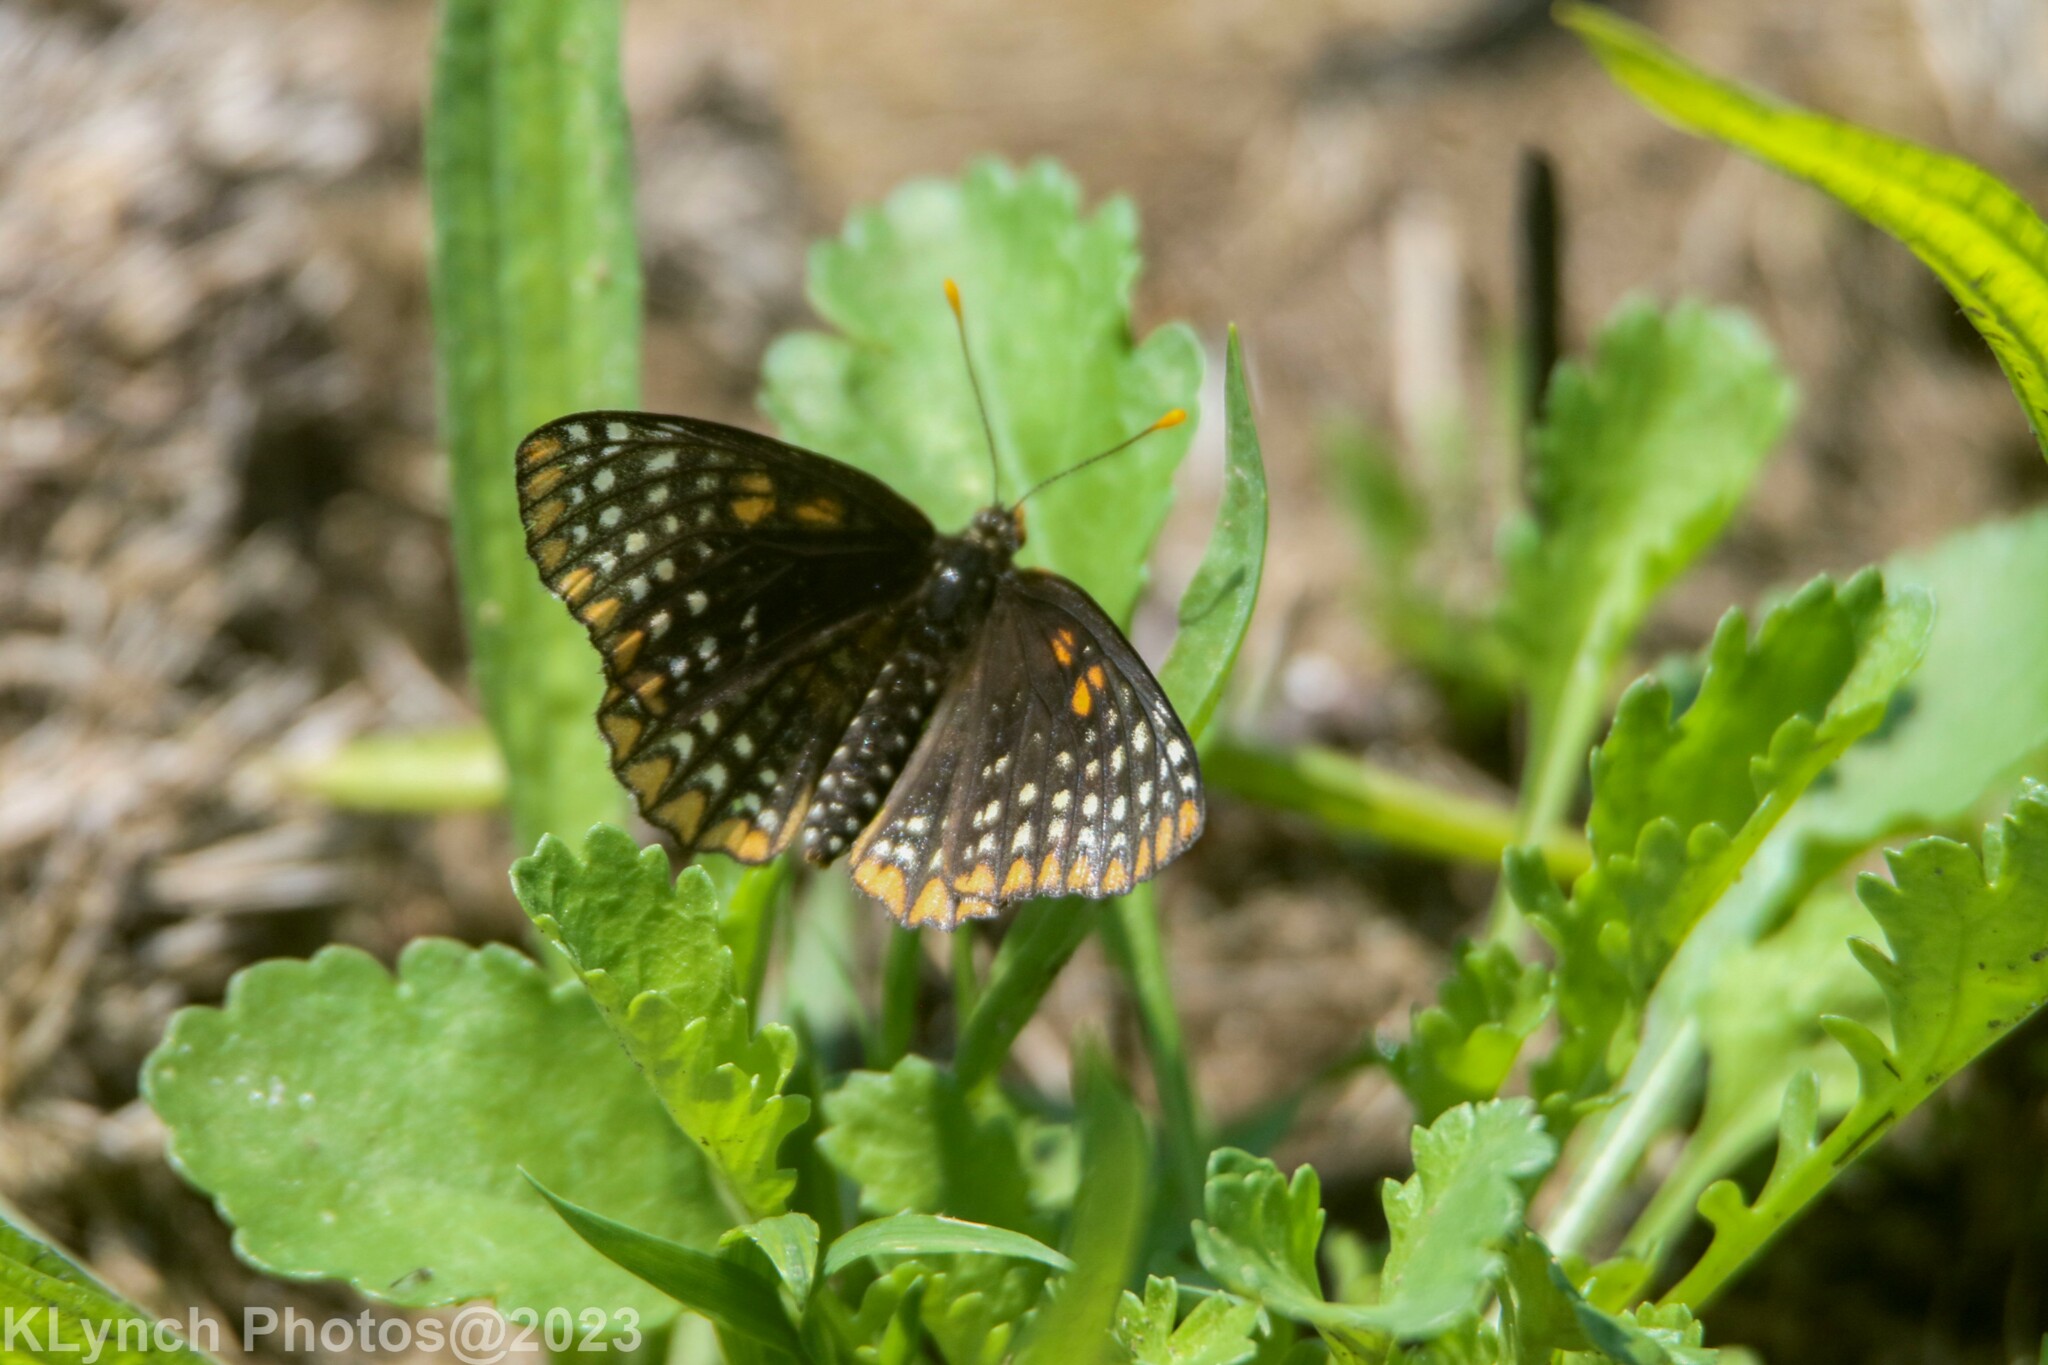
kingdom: Animalia
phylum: Arthropoda
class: Insecta
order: Lepidoptera
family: Nymphalidae
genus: Euphydryas
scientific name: Euphydryas phaeton
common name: Baltimore checkerspot
